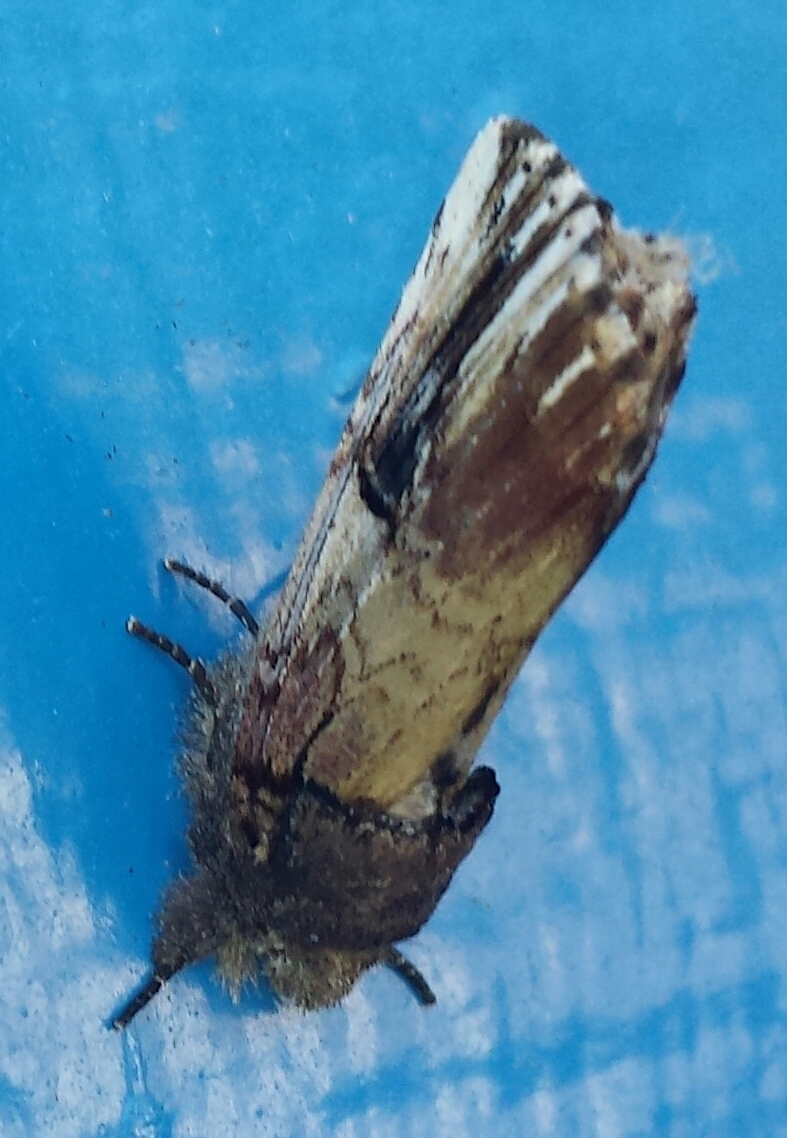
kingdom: Animalia
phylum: Arthropoda
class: Insecta
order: Lepidoptera
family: Notodontidae
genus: Schizura
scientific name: Schizura badia
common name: Chestnut schizura
